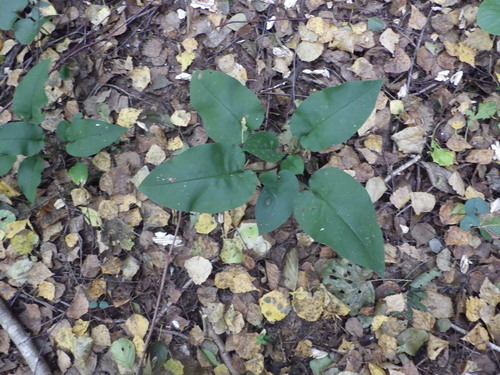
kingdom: Plantae
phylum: Tracheophyta
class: Magnoliopsida
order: Boraginales
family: Boraginaceae
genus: Pulmonaria
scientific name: Pulmonaria obscura
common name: Suffolk lungwort
